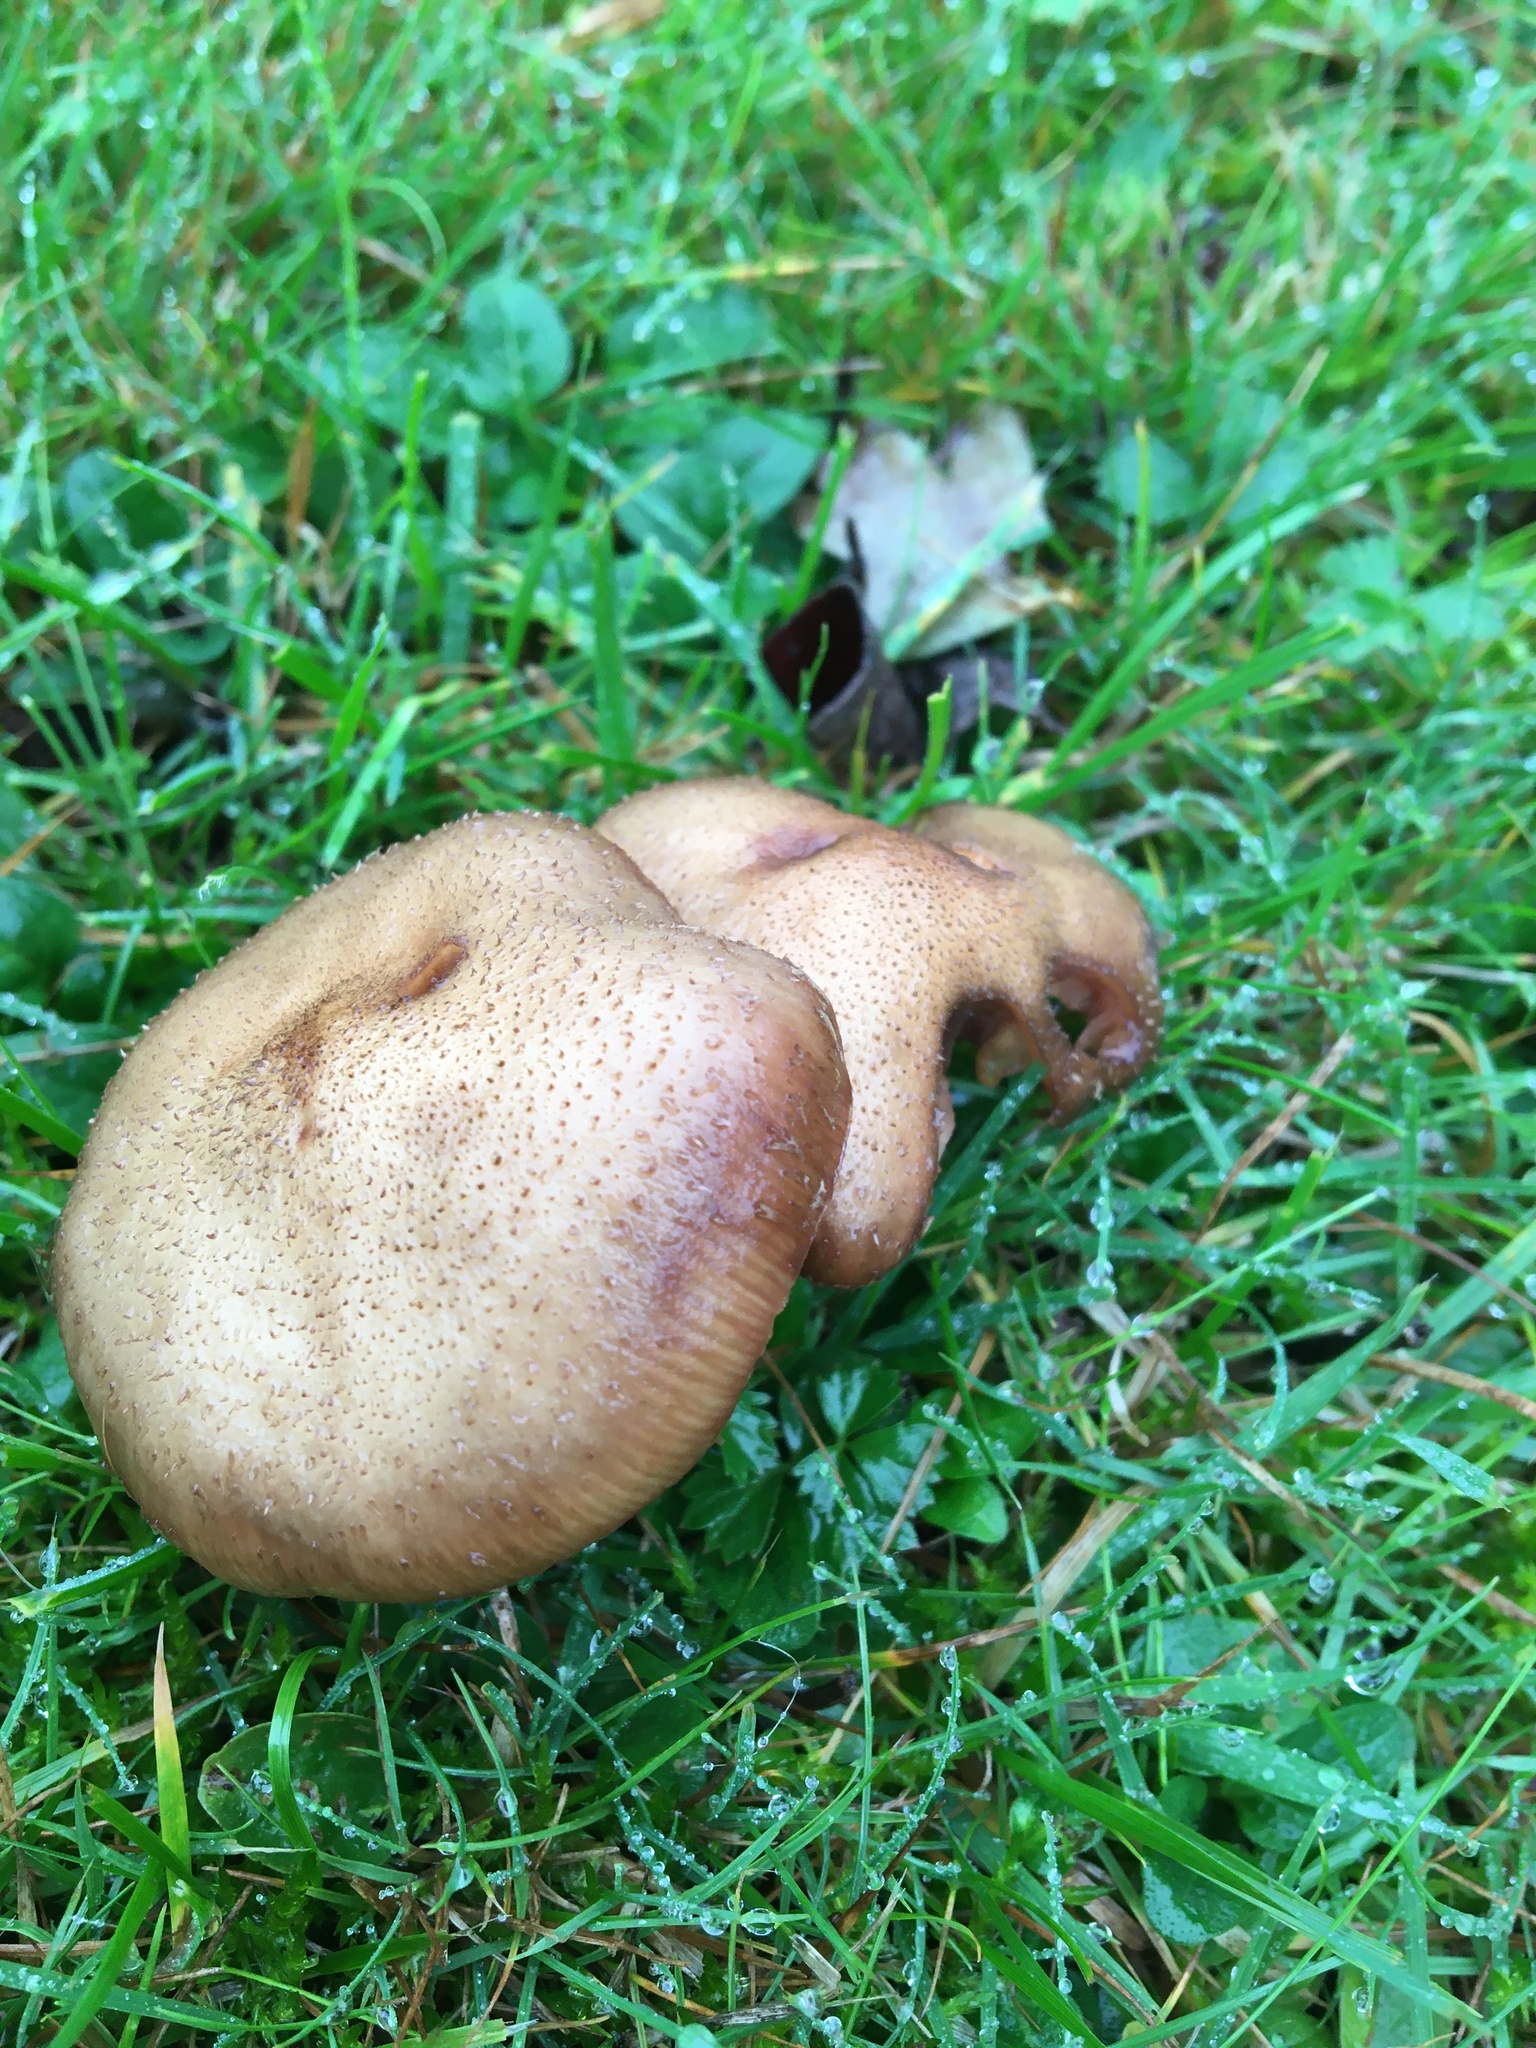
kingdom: Fungi
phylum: Basidiomycota
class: Agaricomycetes
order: Agaricales
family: Physalacriaceae
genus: Armillaria
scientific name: Armillaria
